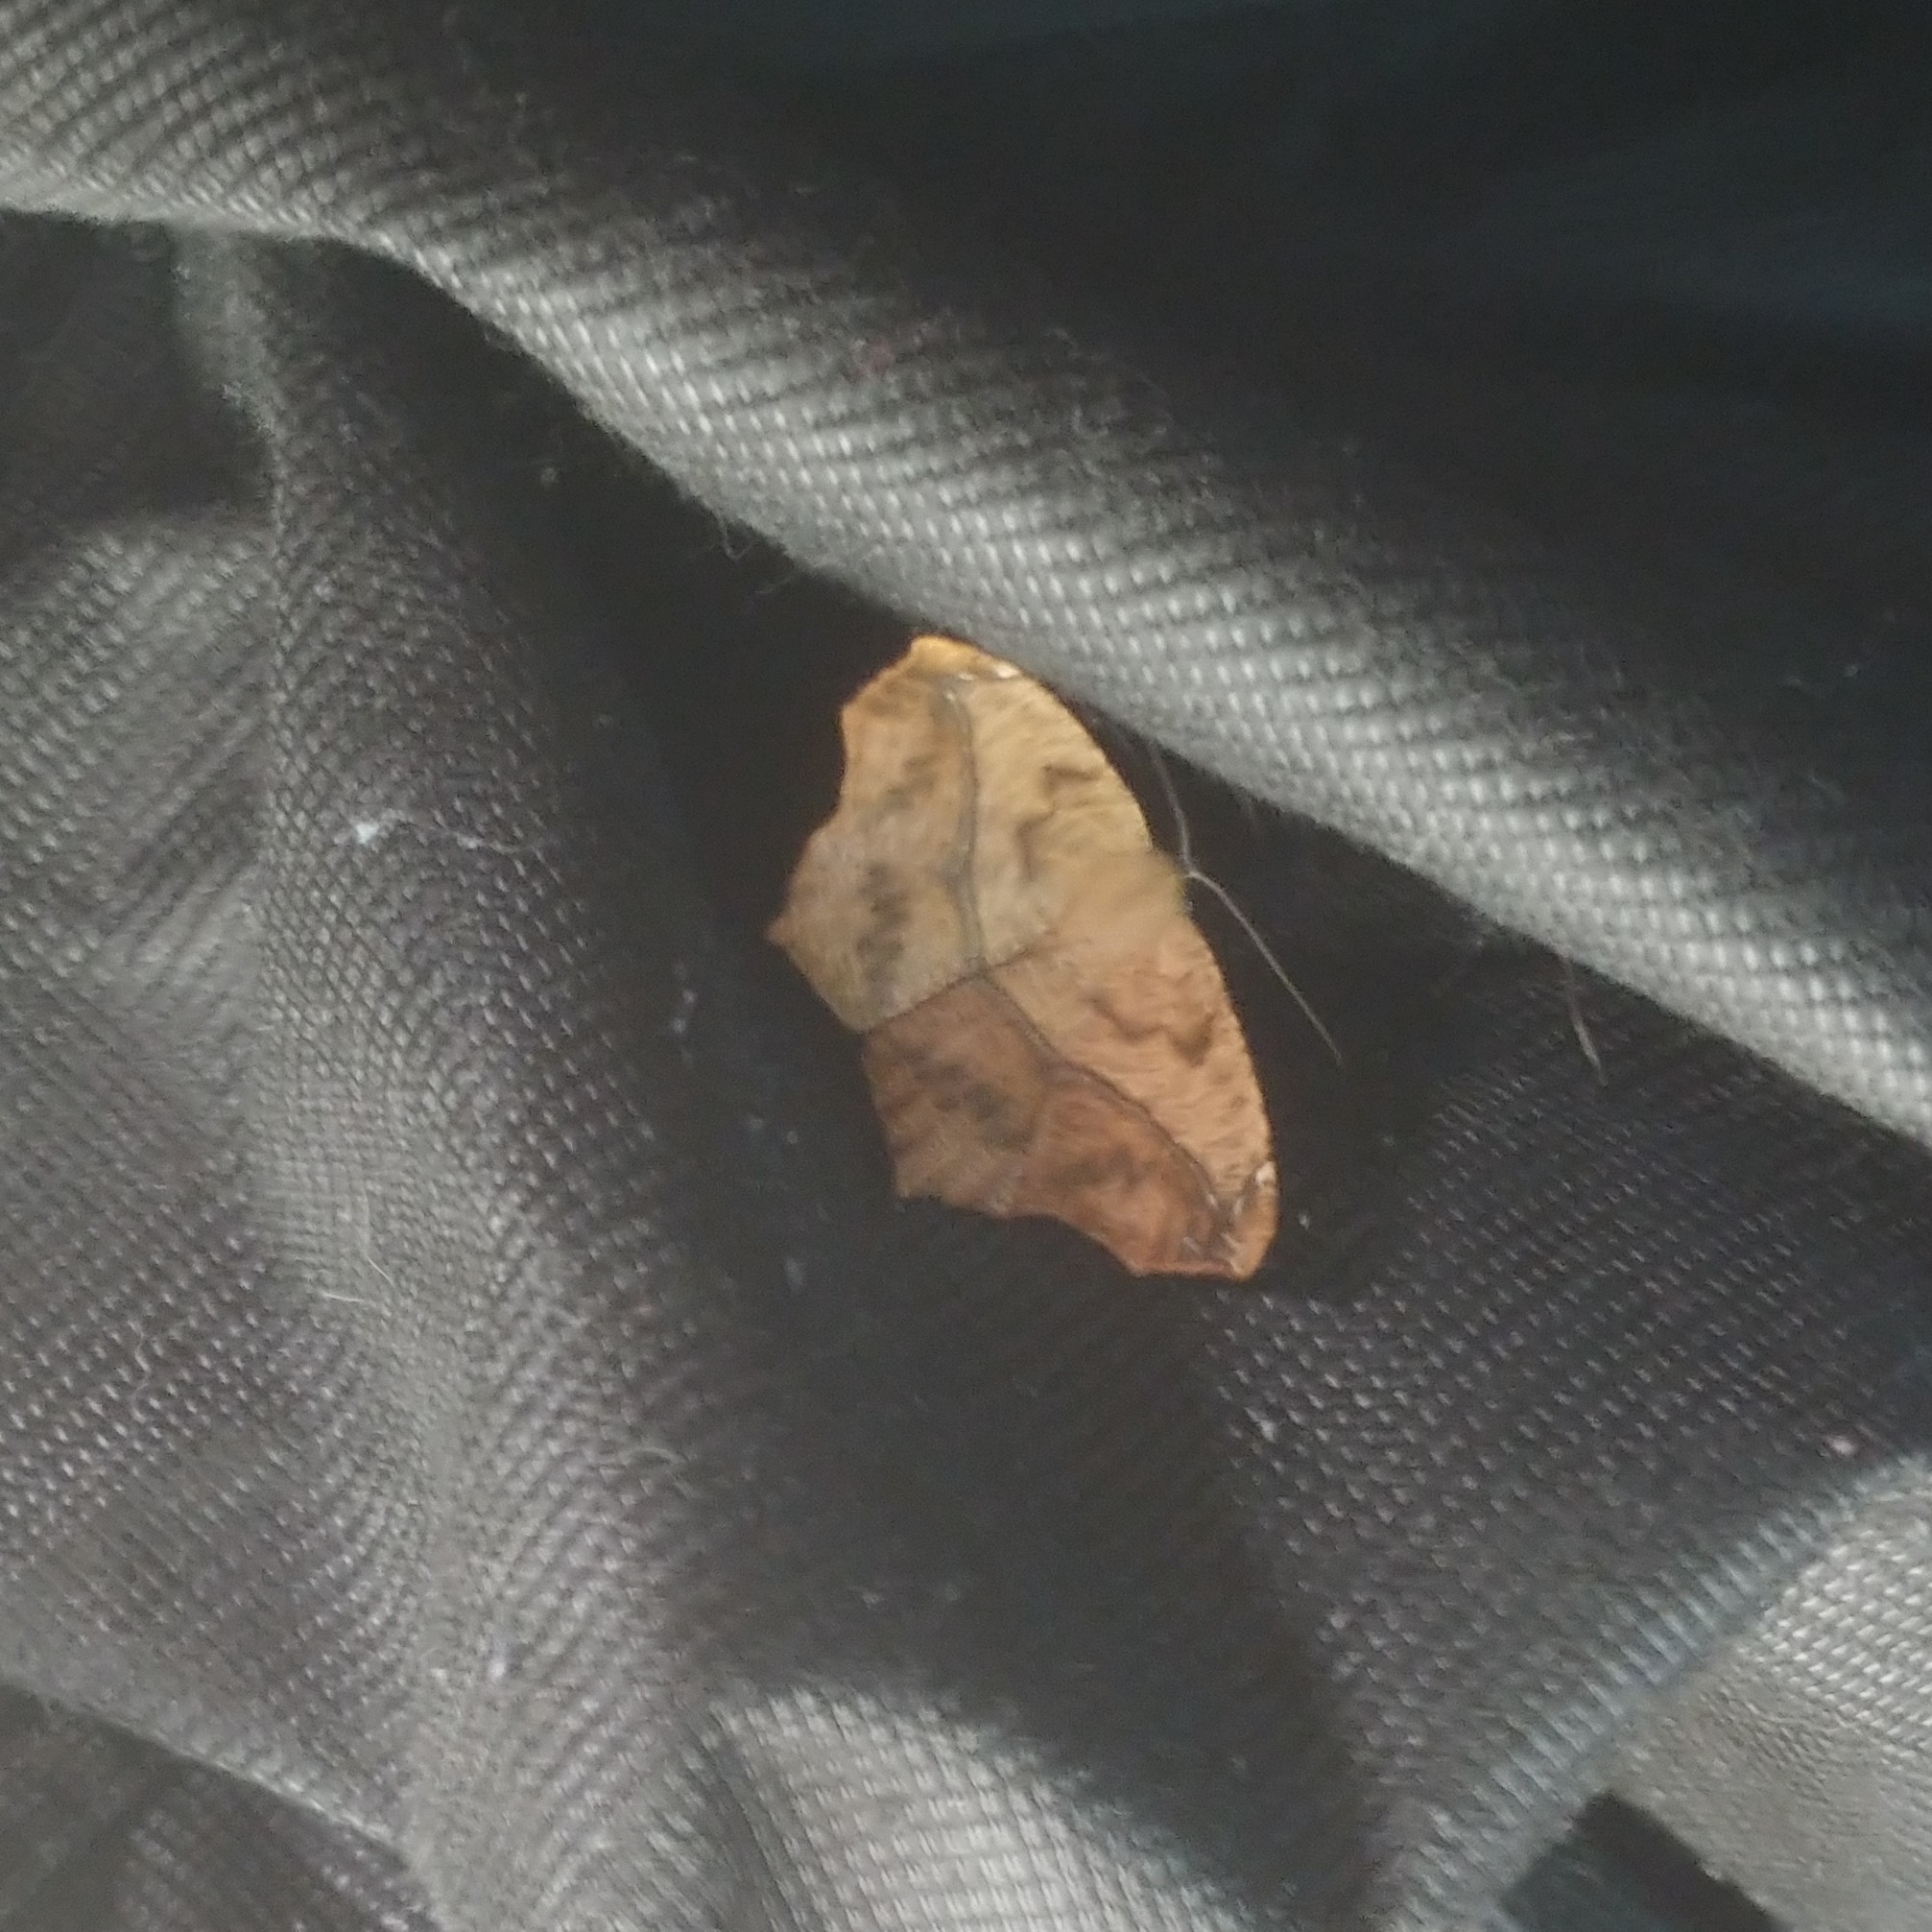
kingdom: Animalia
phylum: Arthropoda
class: Insecta
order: Lepidoptera
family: Geometridae
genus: Prochoerodes
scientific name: Prochoerodes lineola
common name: Large maple spanworm
